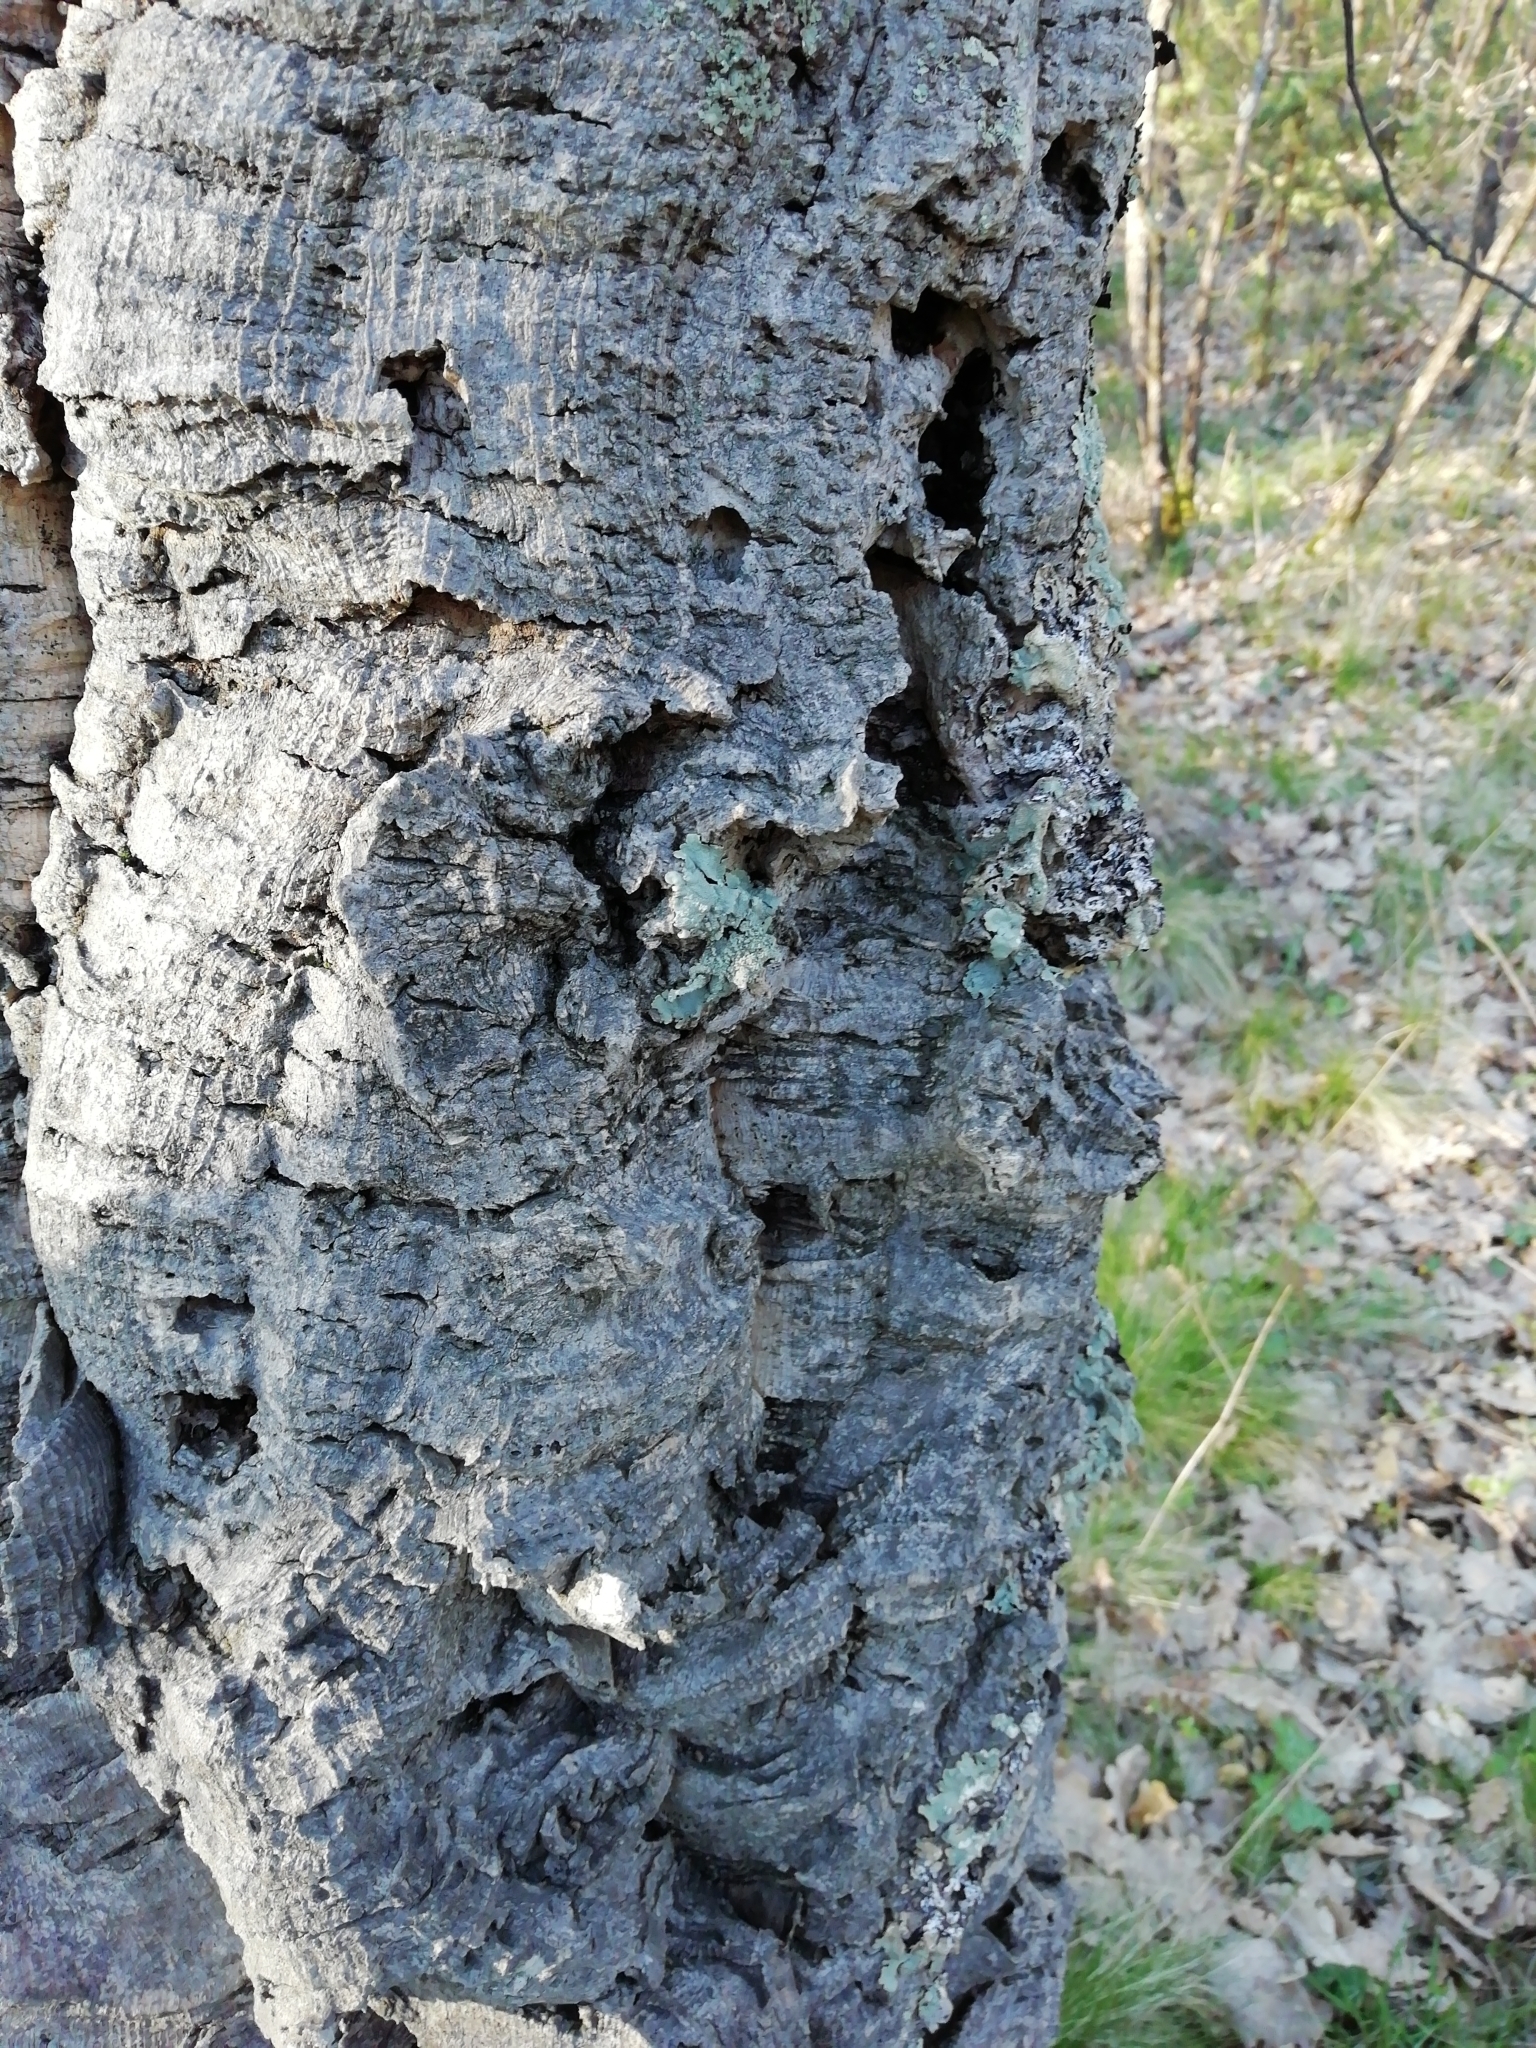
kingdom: Plantae
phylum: Tracheophyta
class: Magnoliopsida
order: Fagales
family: Fagaceae
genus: Quercus
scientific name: Quercus suber
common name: Cork oak
